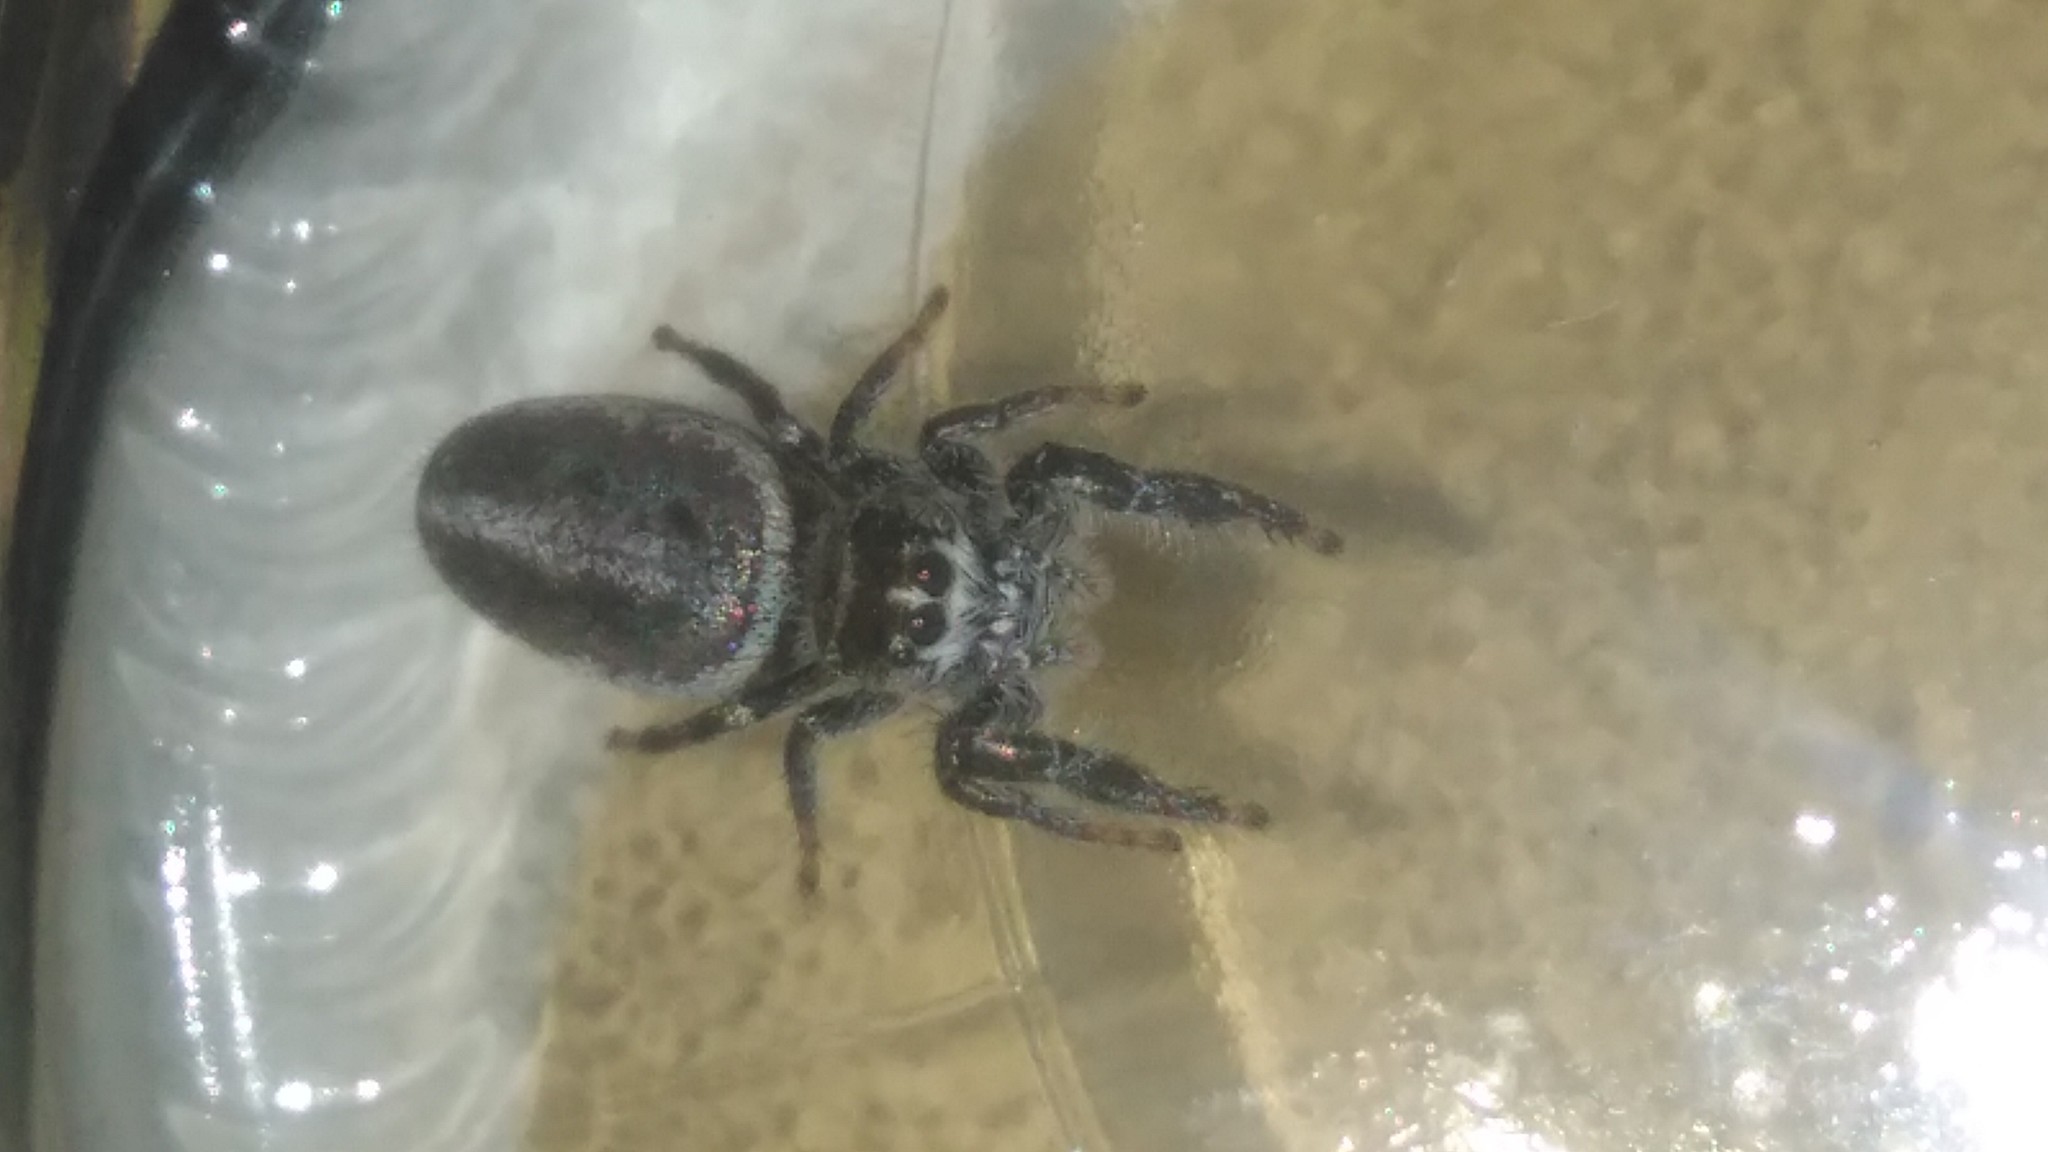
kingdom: Animalia
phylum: Arthropoda
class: Arachnida
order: Araneae
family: Salticidae
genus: Dendryphantes
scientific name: Dendryphantes mordax
